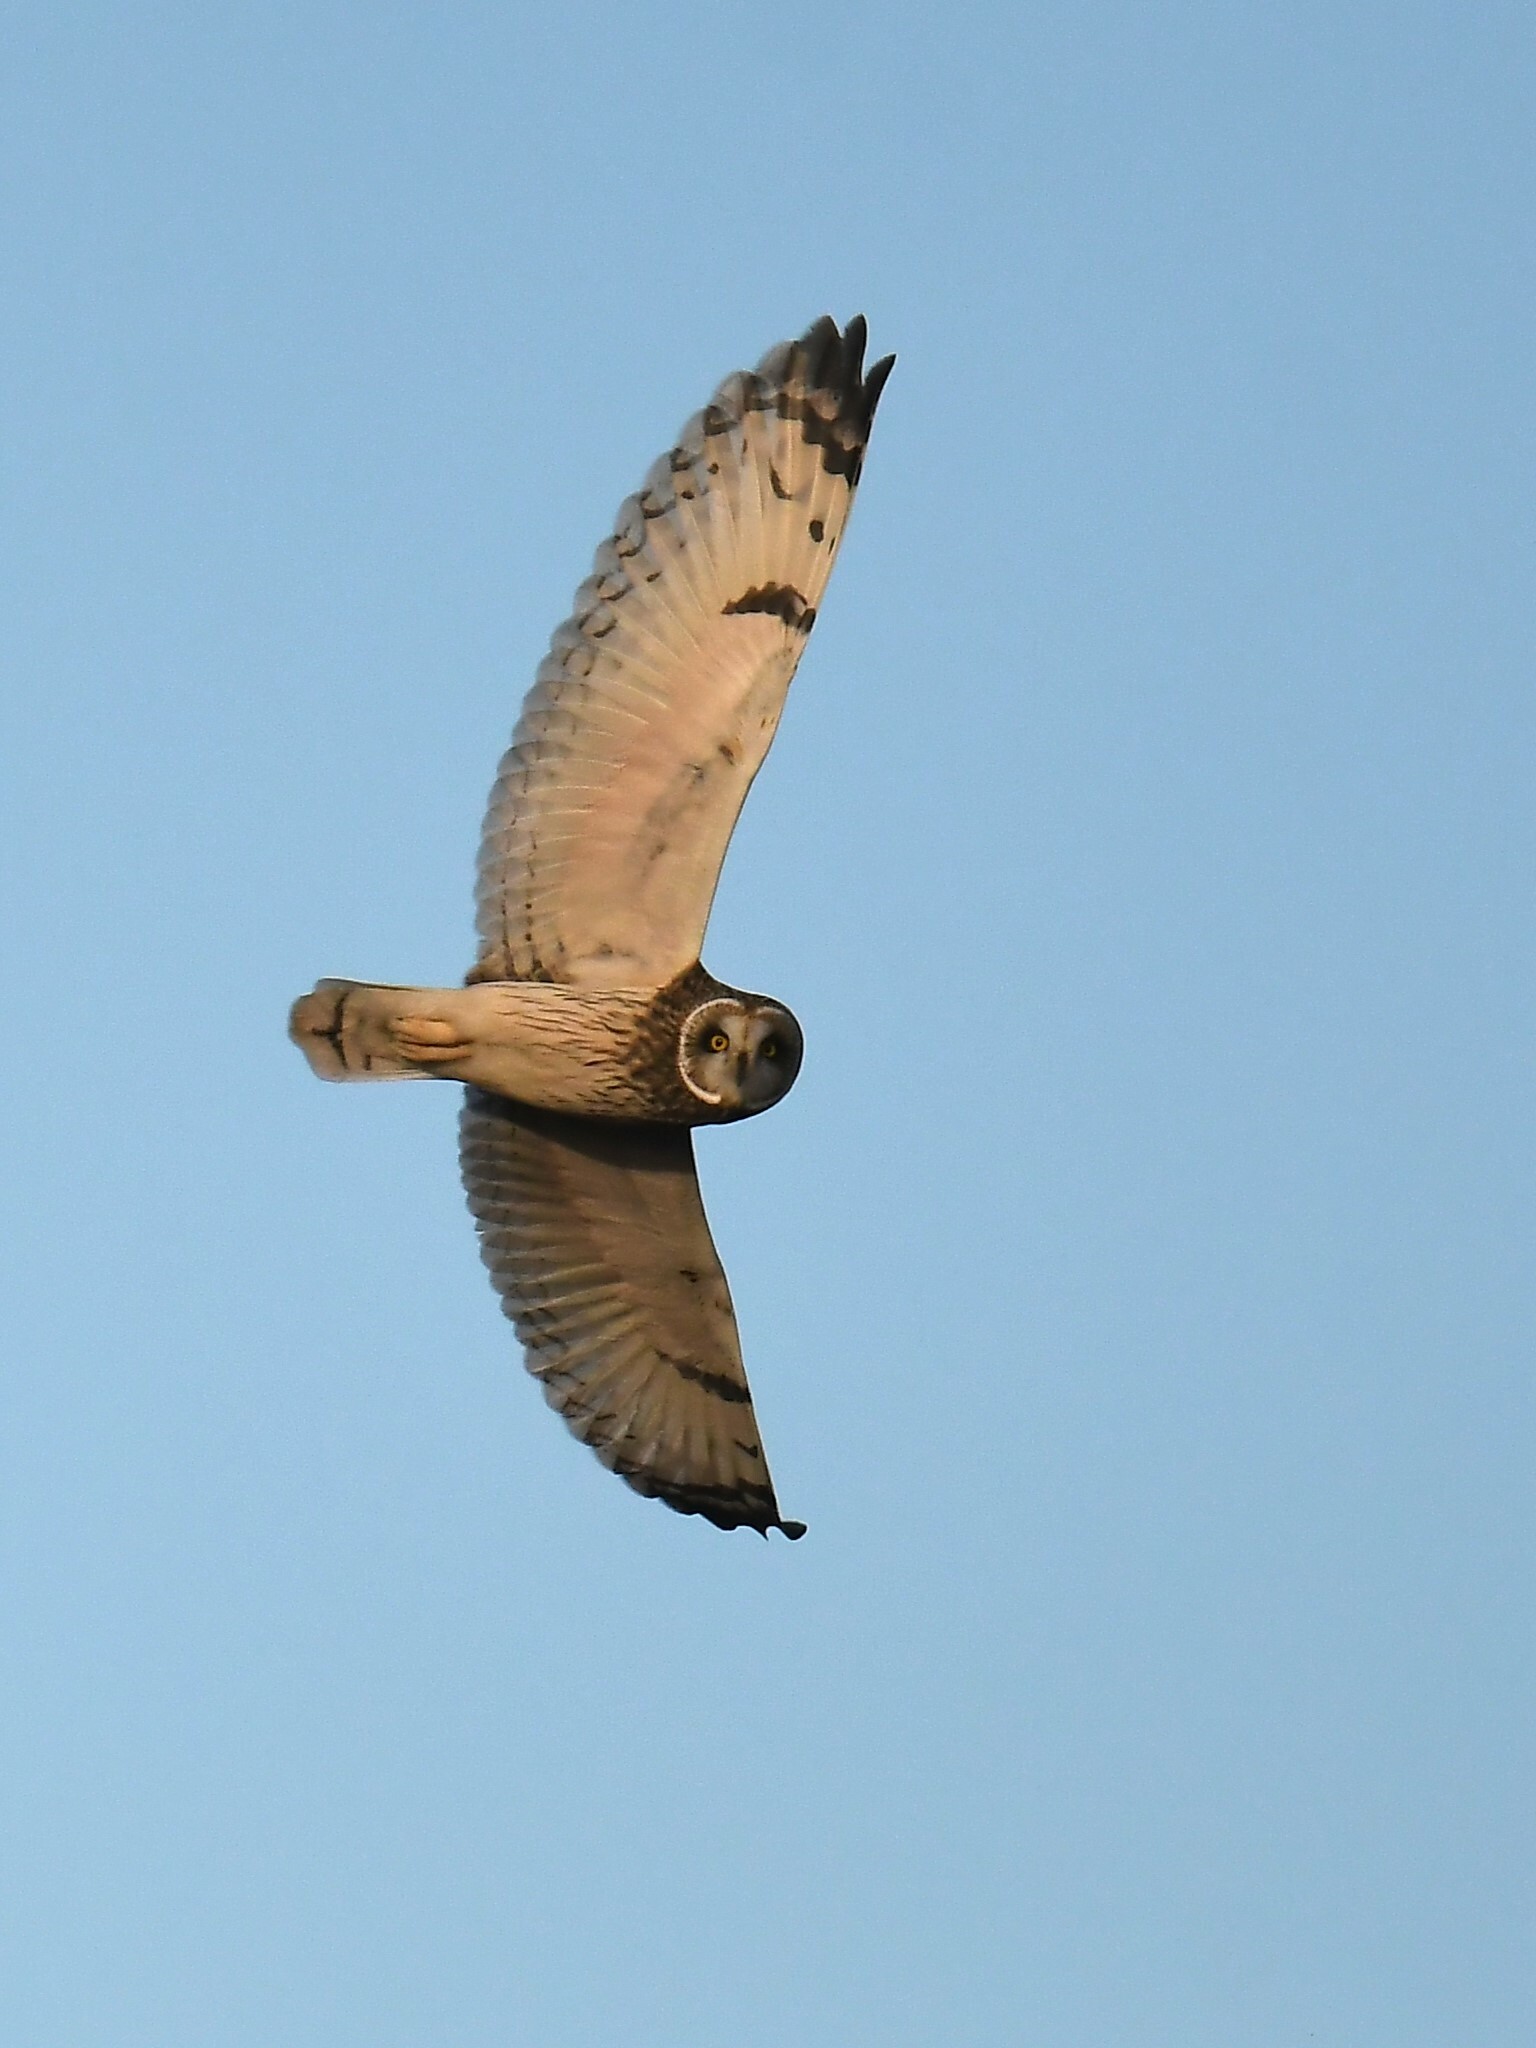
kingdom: Animalia
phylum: Chordata
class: Aves
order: Strigiformes
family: Strigidae
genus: Asio
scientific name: Asio flammeus
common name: Short-eared owl
